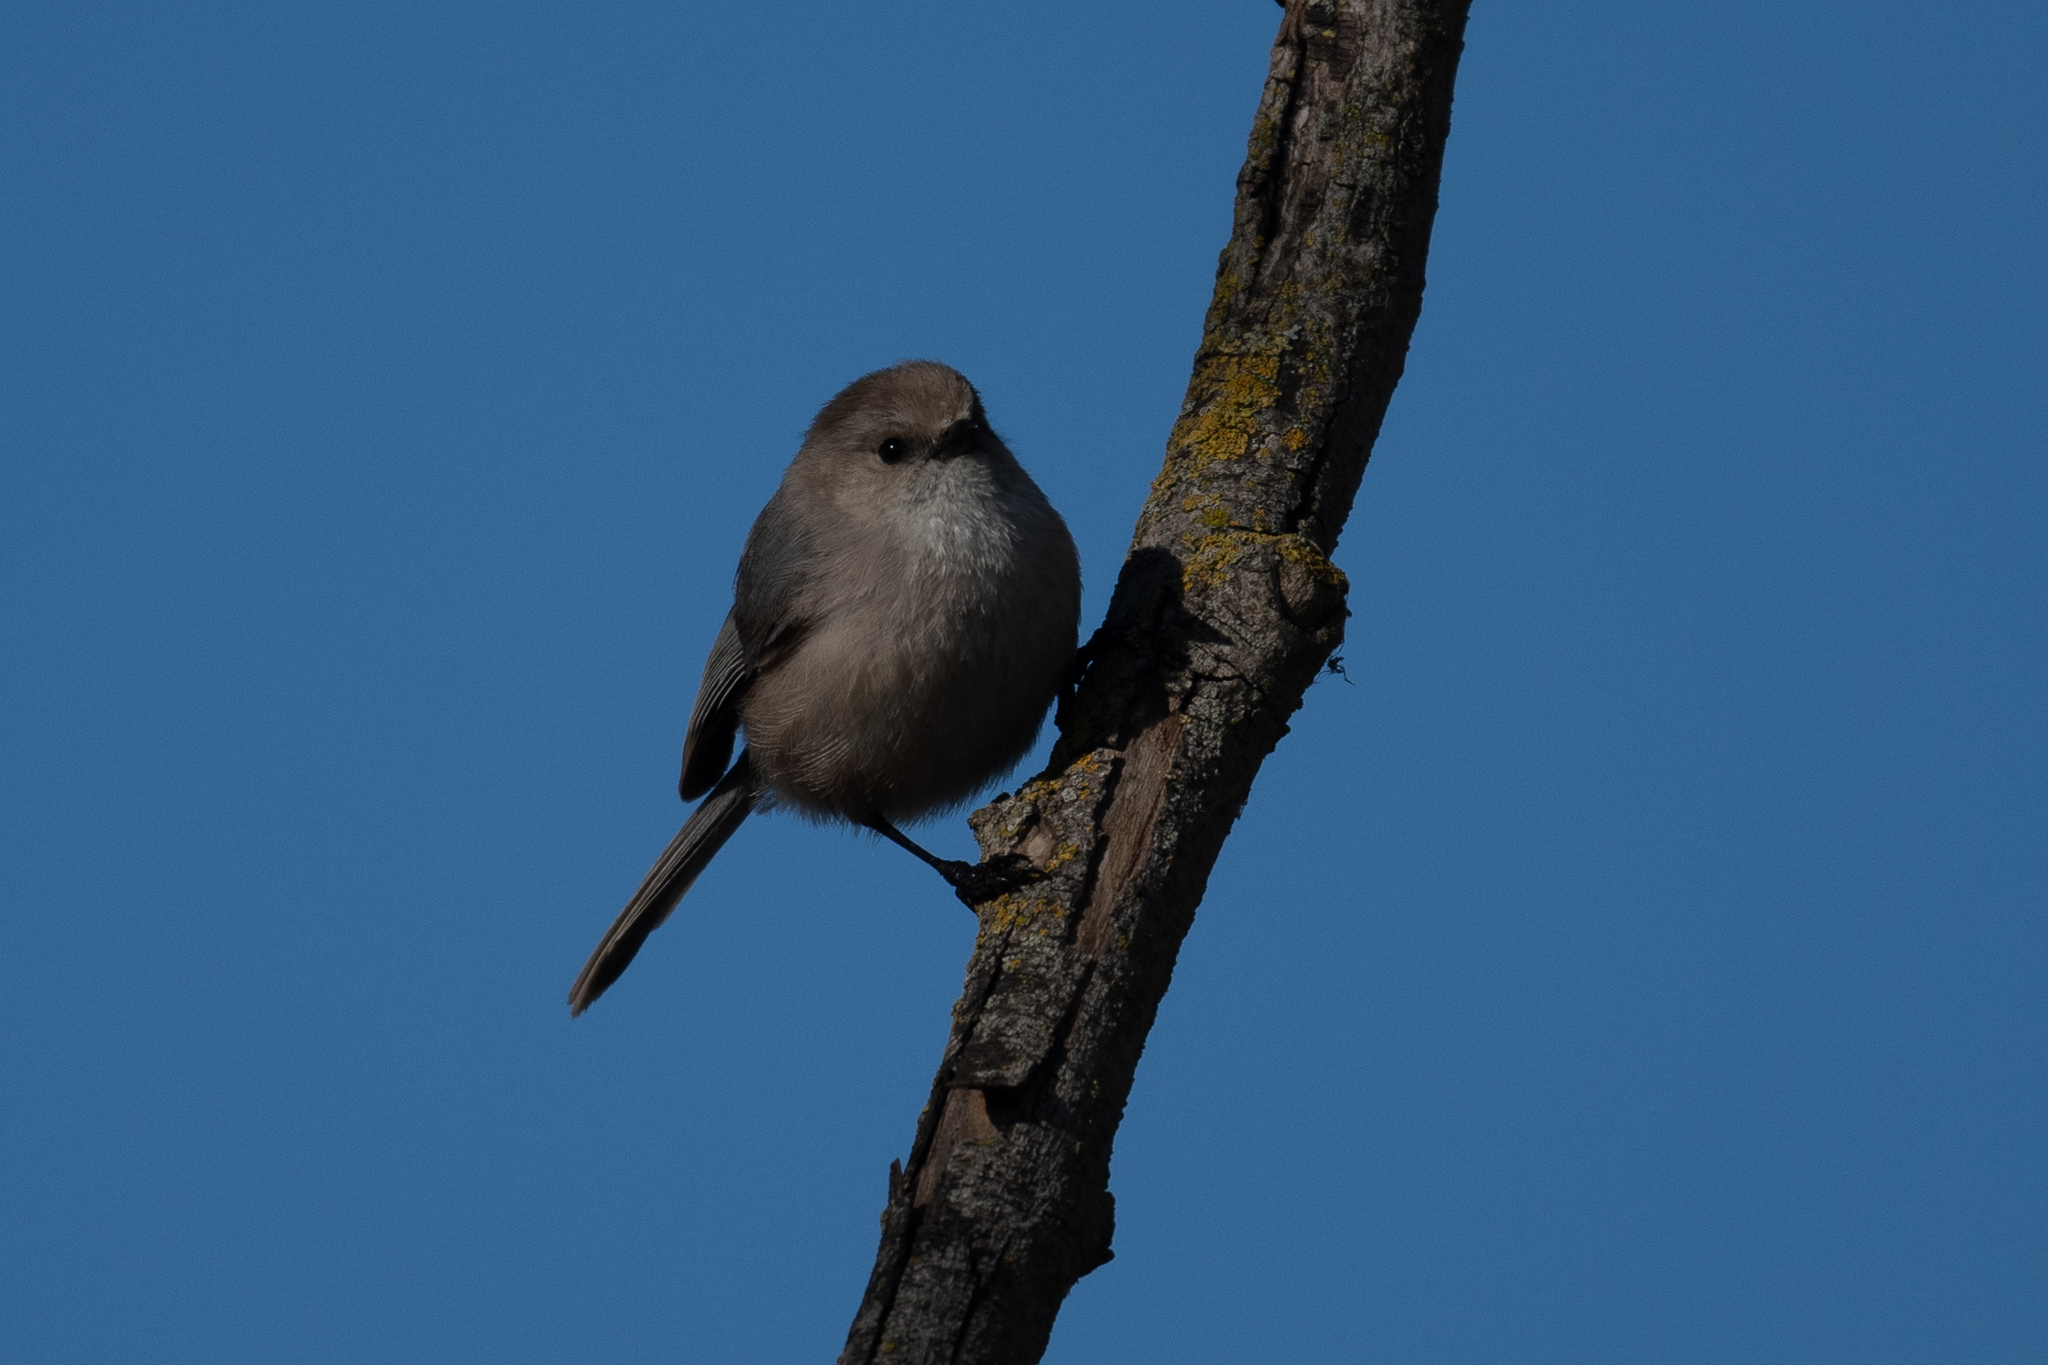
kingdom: Animalia
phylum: Chordata
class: Aves
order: Passeriformes
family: Aegithalidae
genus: Psaltriparus
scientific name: Psaltriparus minimus
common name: American bushtit
